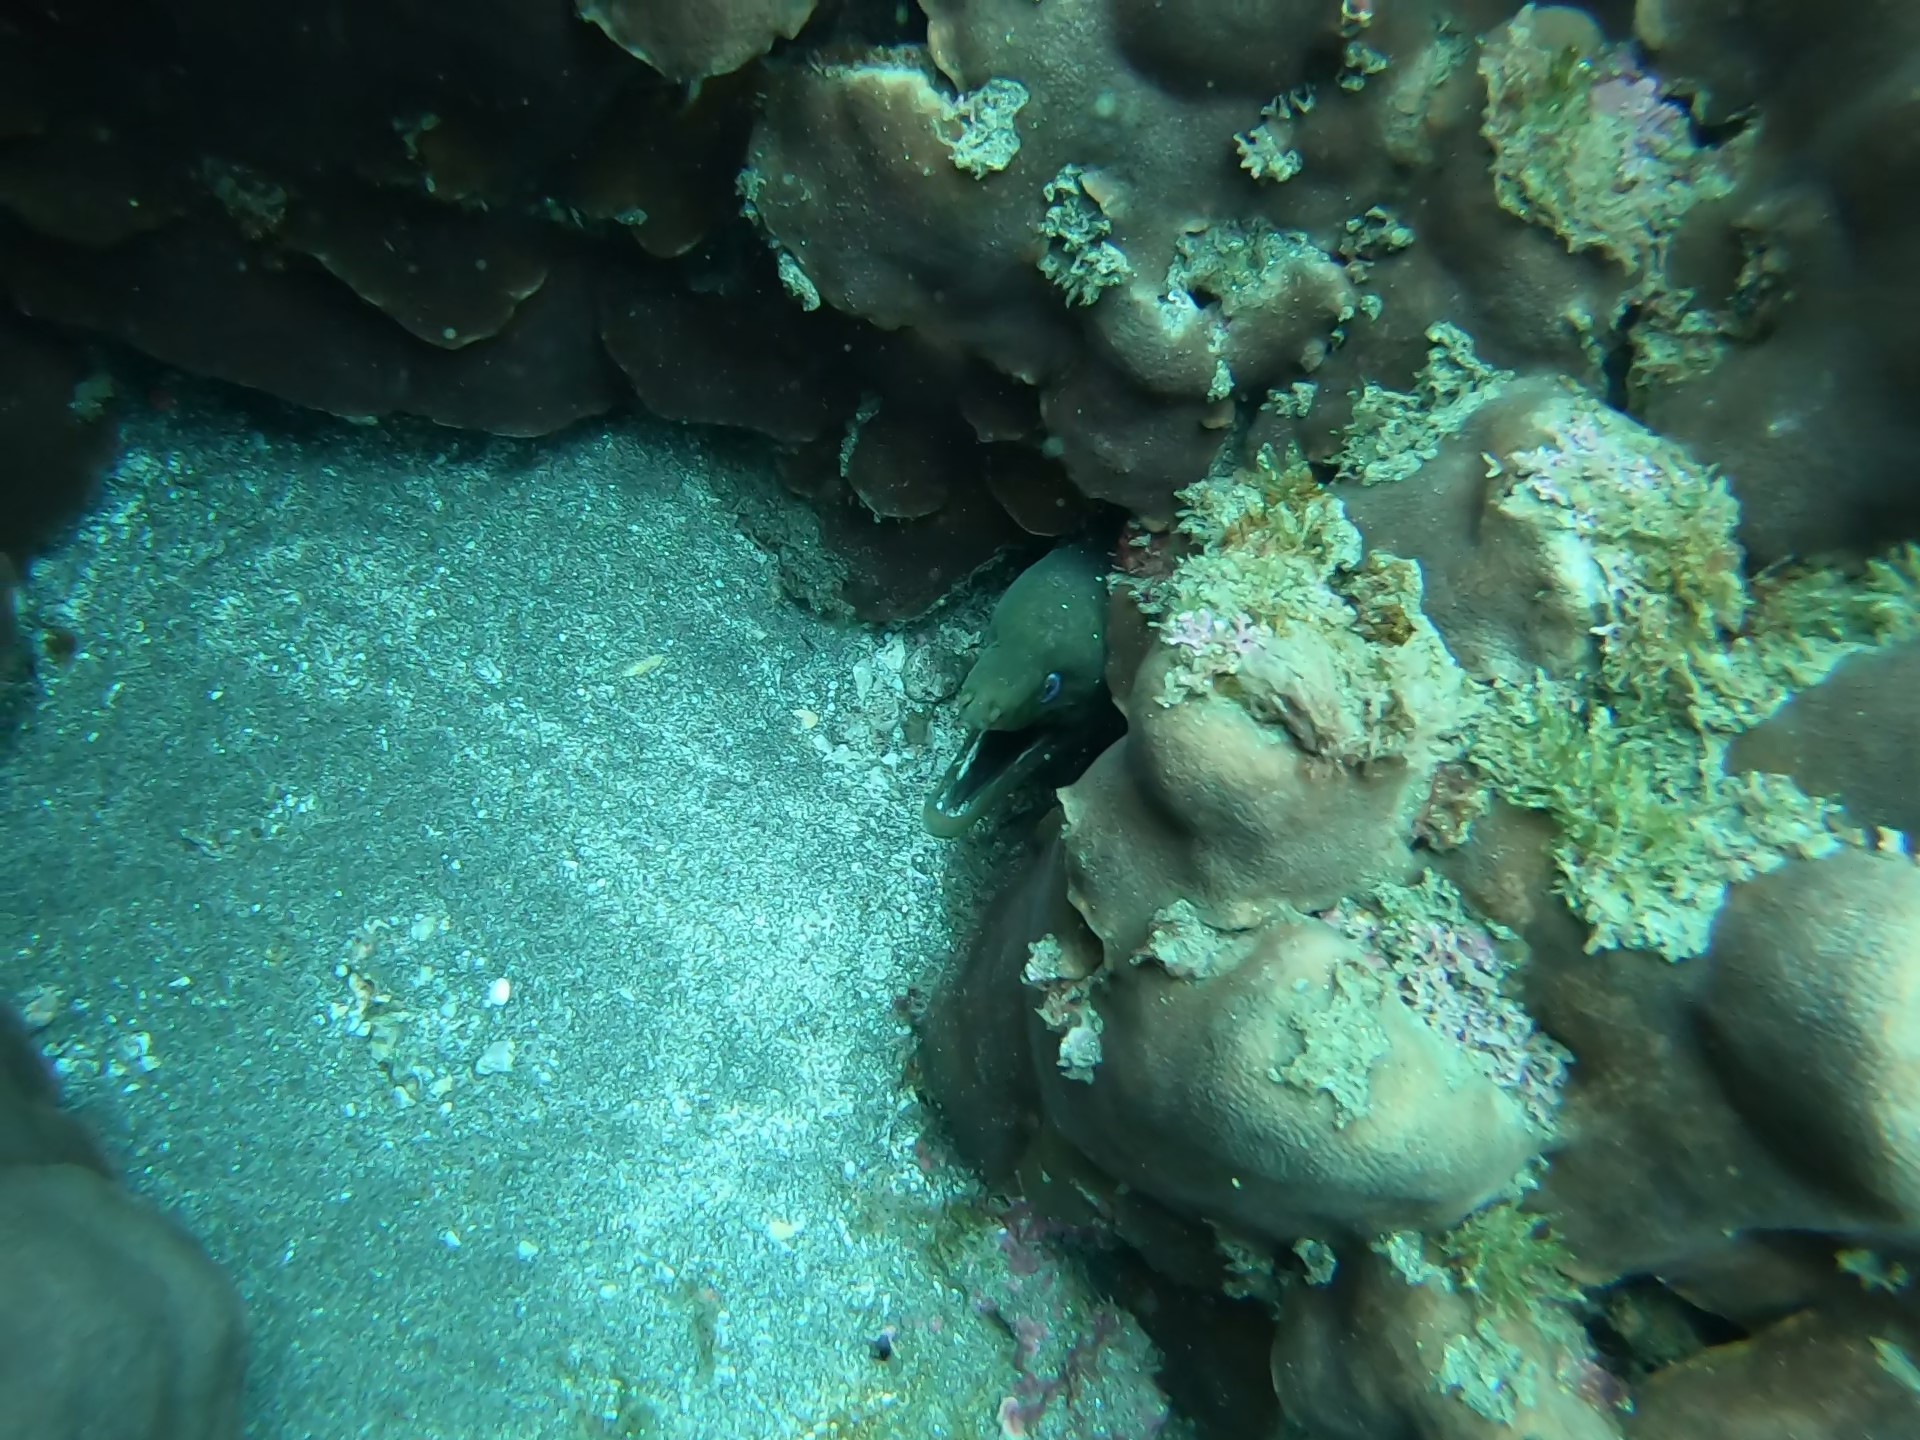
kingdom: Animalia
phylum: Chordata
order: Anguilliformes
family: Muraenidae
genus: Gymnothorax
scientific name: Gymnothorax dovii
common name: Finespotted moray
